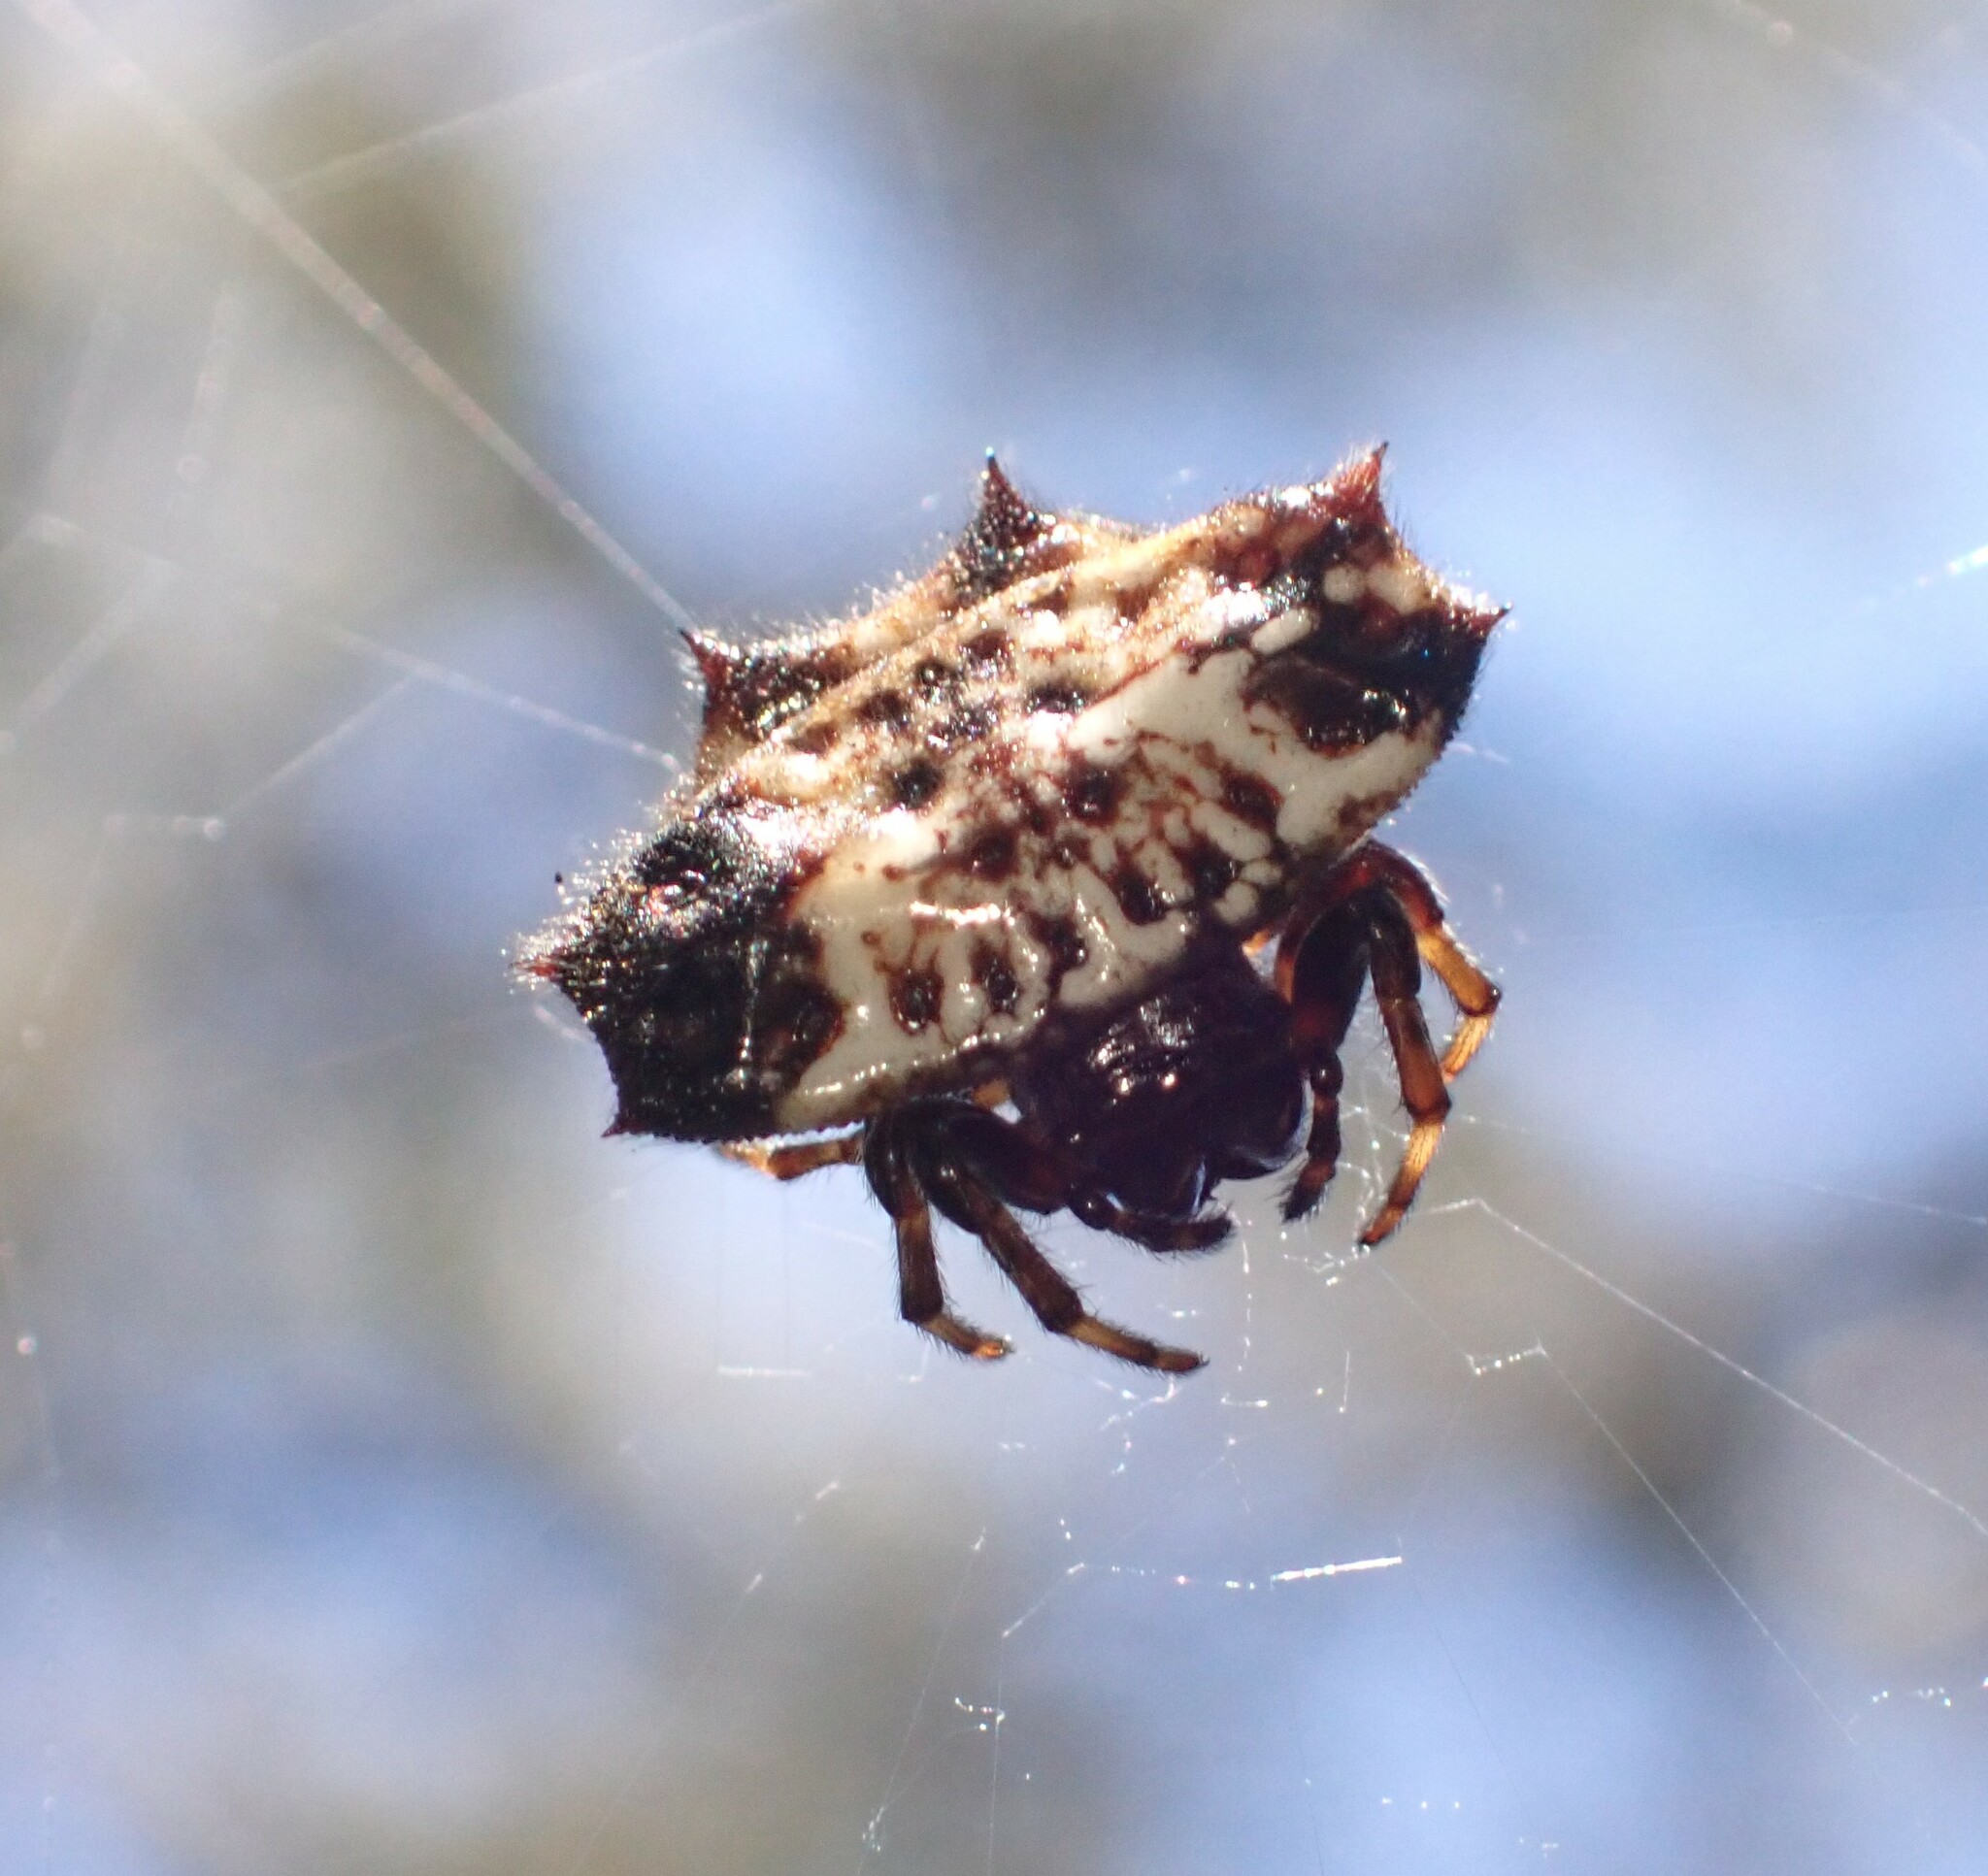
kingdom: Animalia
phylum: Arthropoda
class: Arachnida
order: Araneae
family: Araneidae
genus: Gasteracantha
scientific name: Gasteracantha cancriformis
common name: Orb weavers
